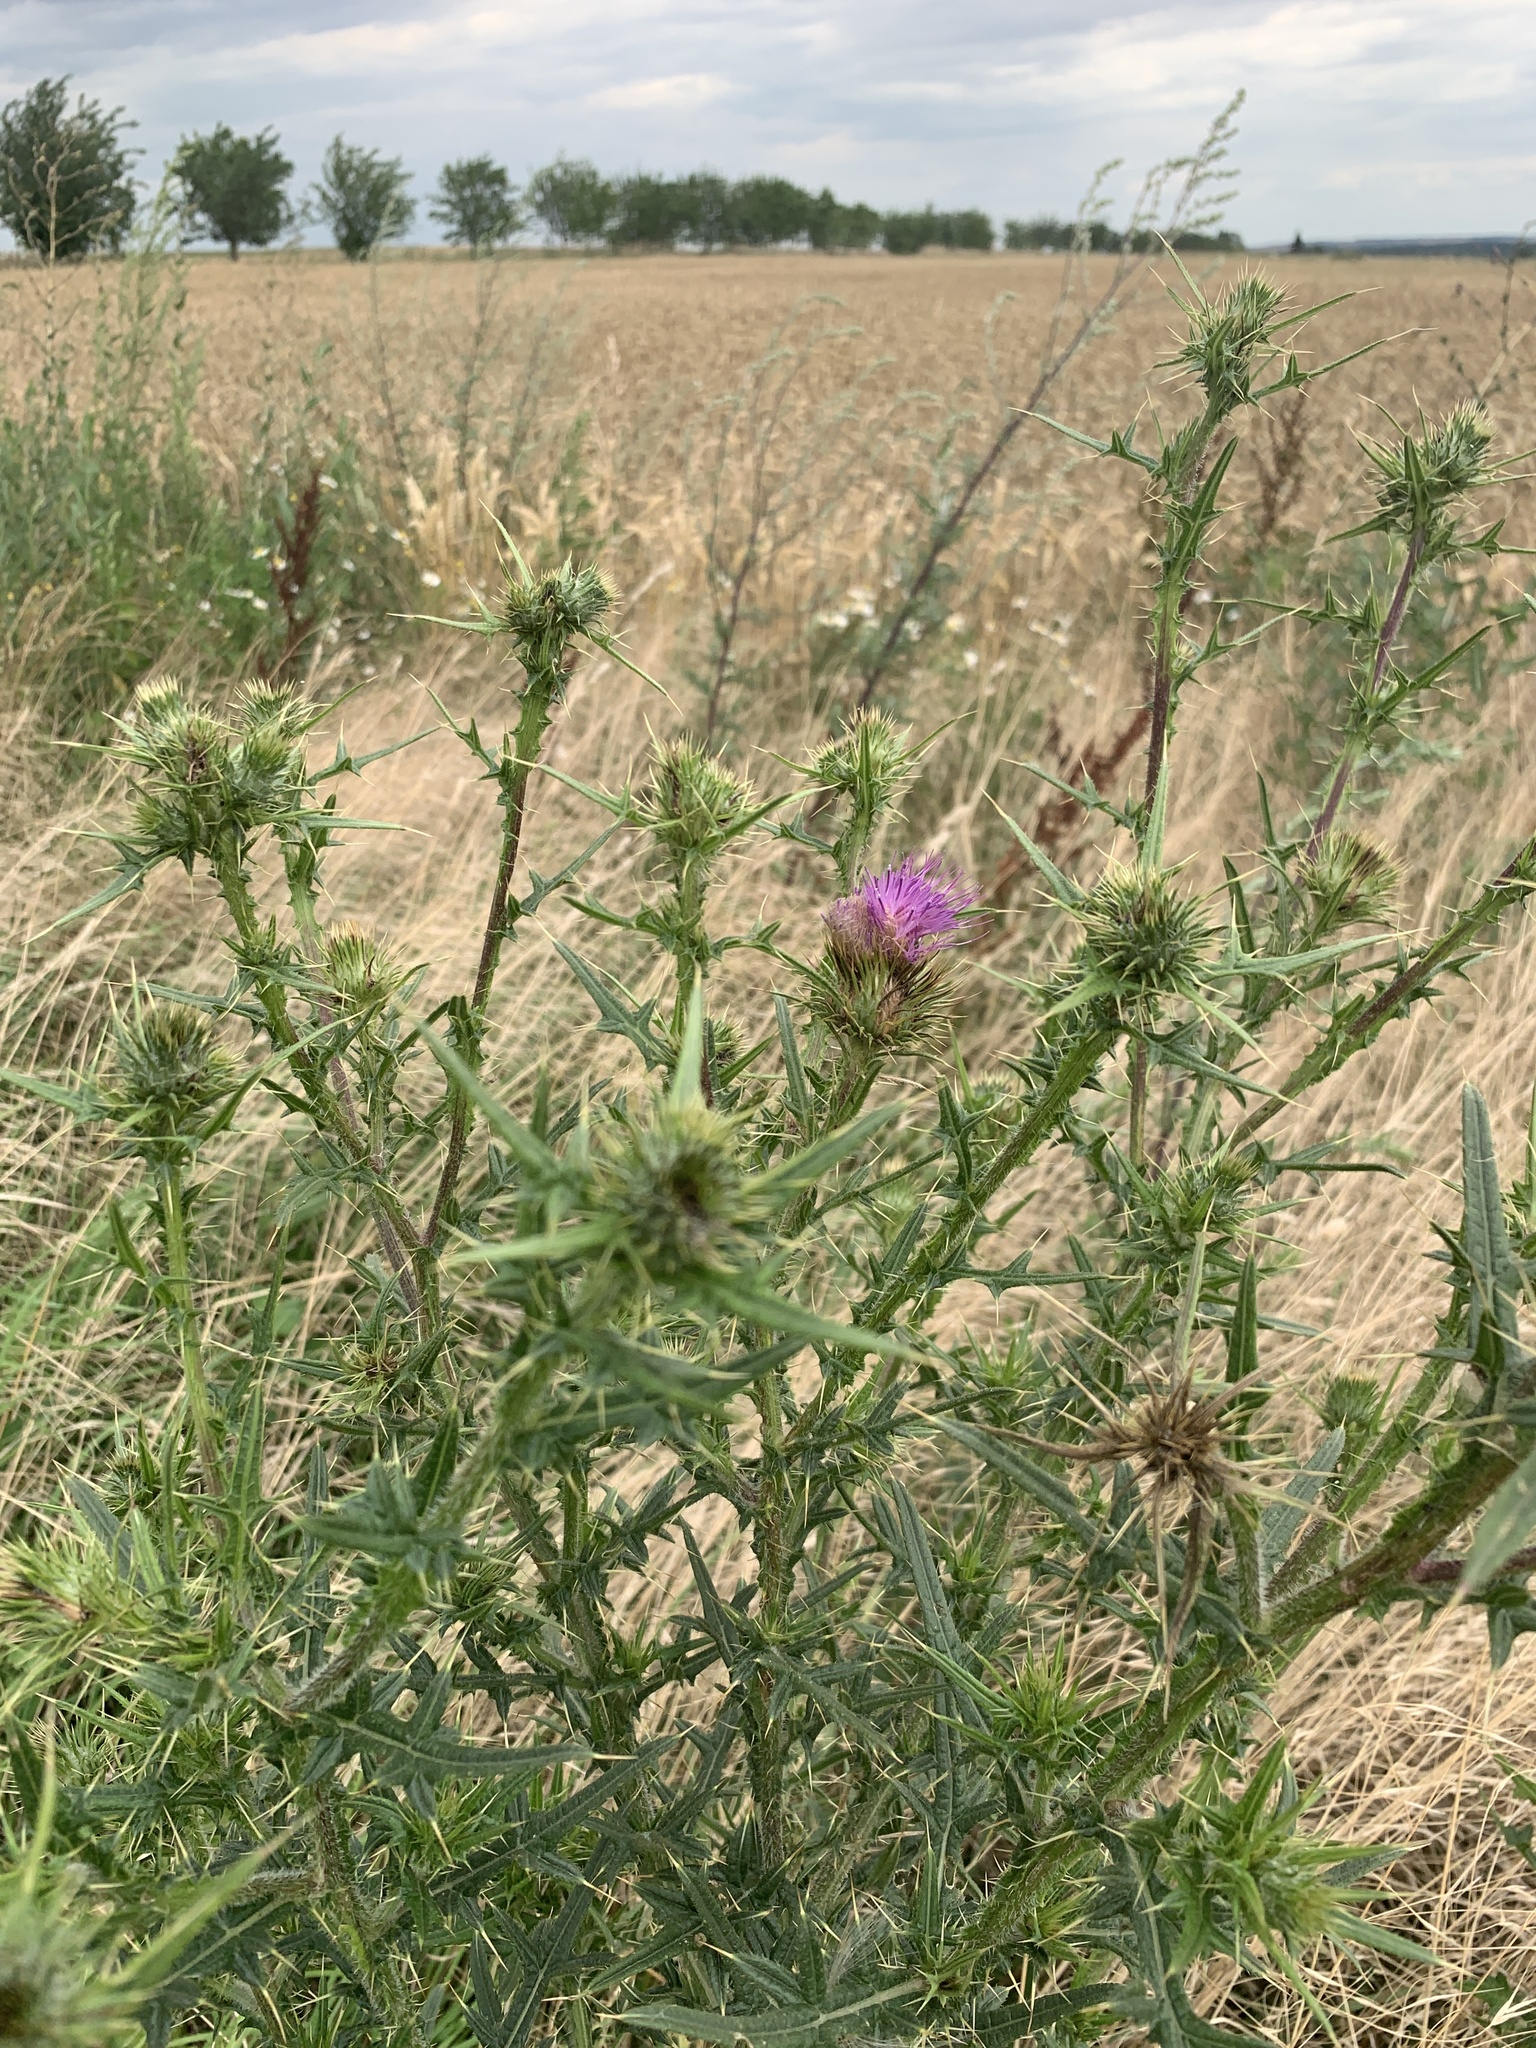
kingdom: Plantae
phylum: Tracheophyta
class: Magnoliopsida
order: Asterales
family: Asteraceae
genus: Cirsium
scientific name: Cirsium vulgare
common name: Bull thistle
